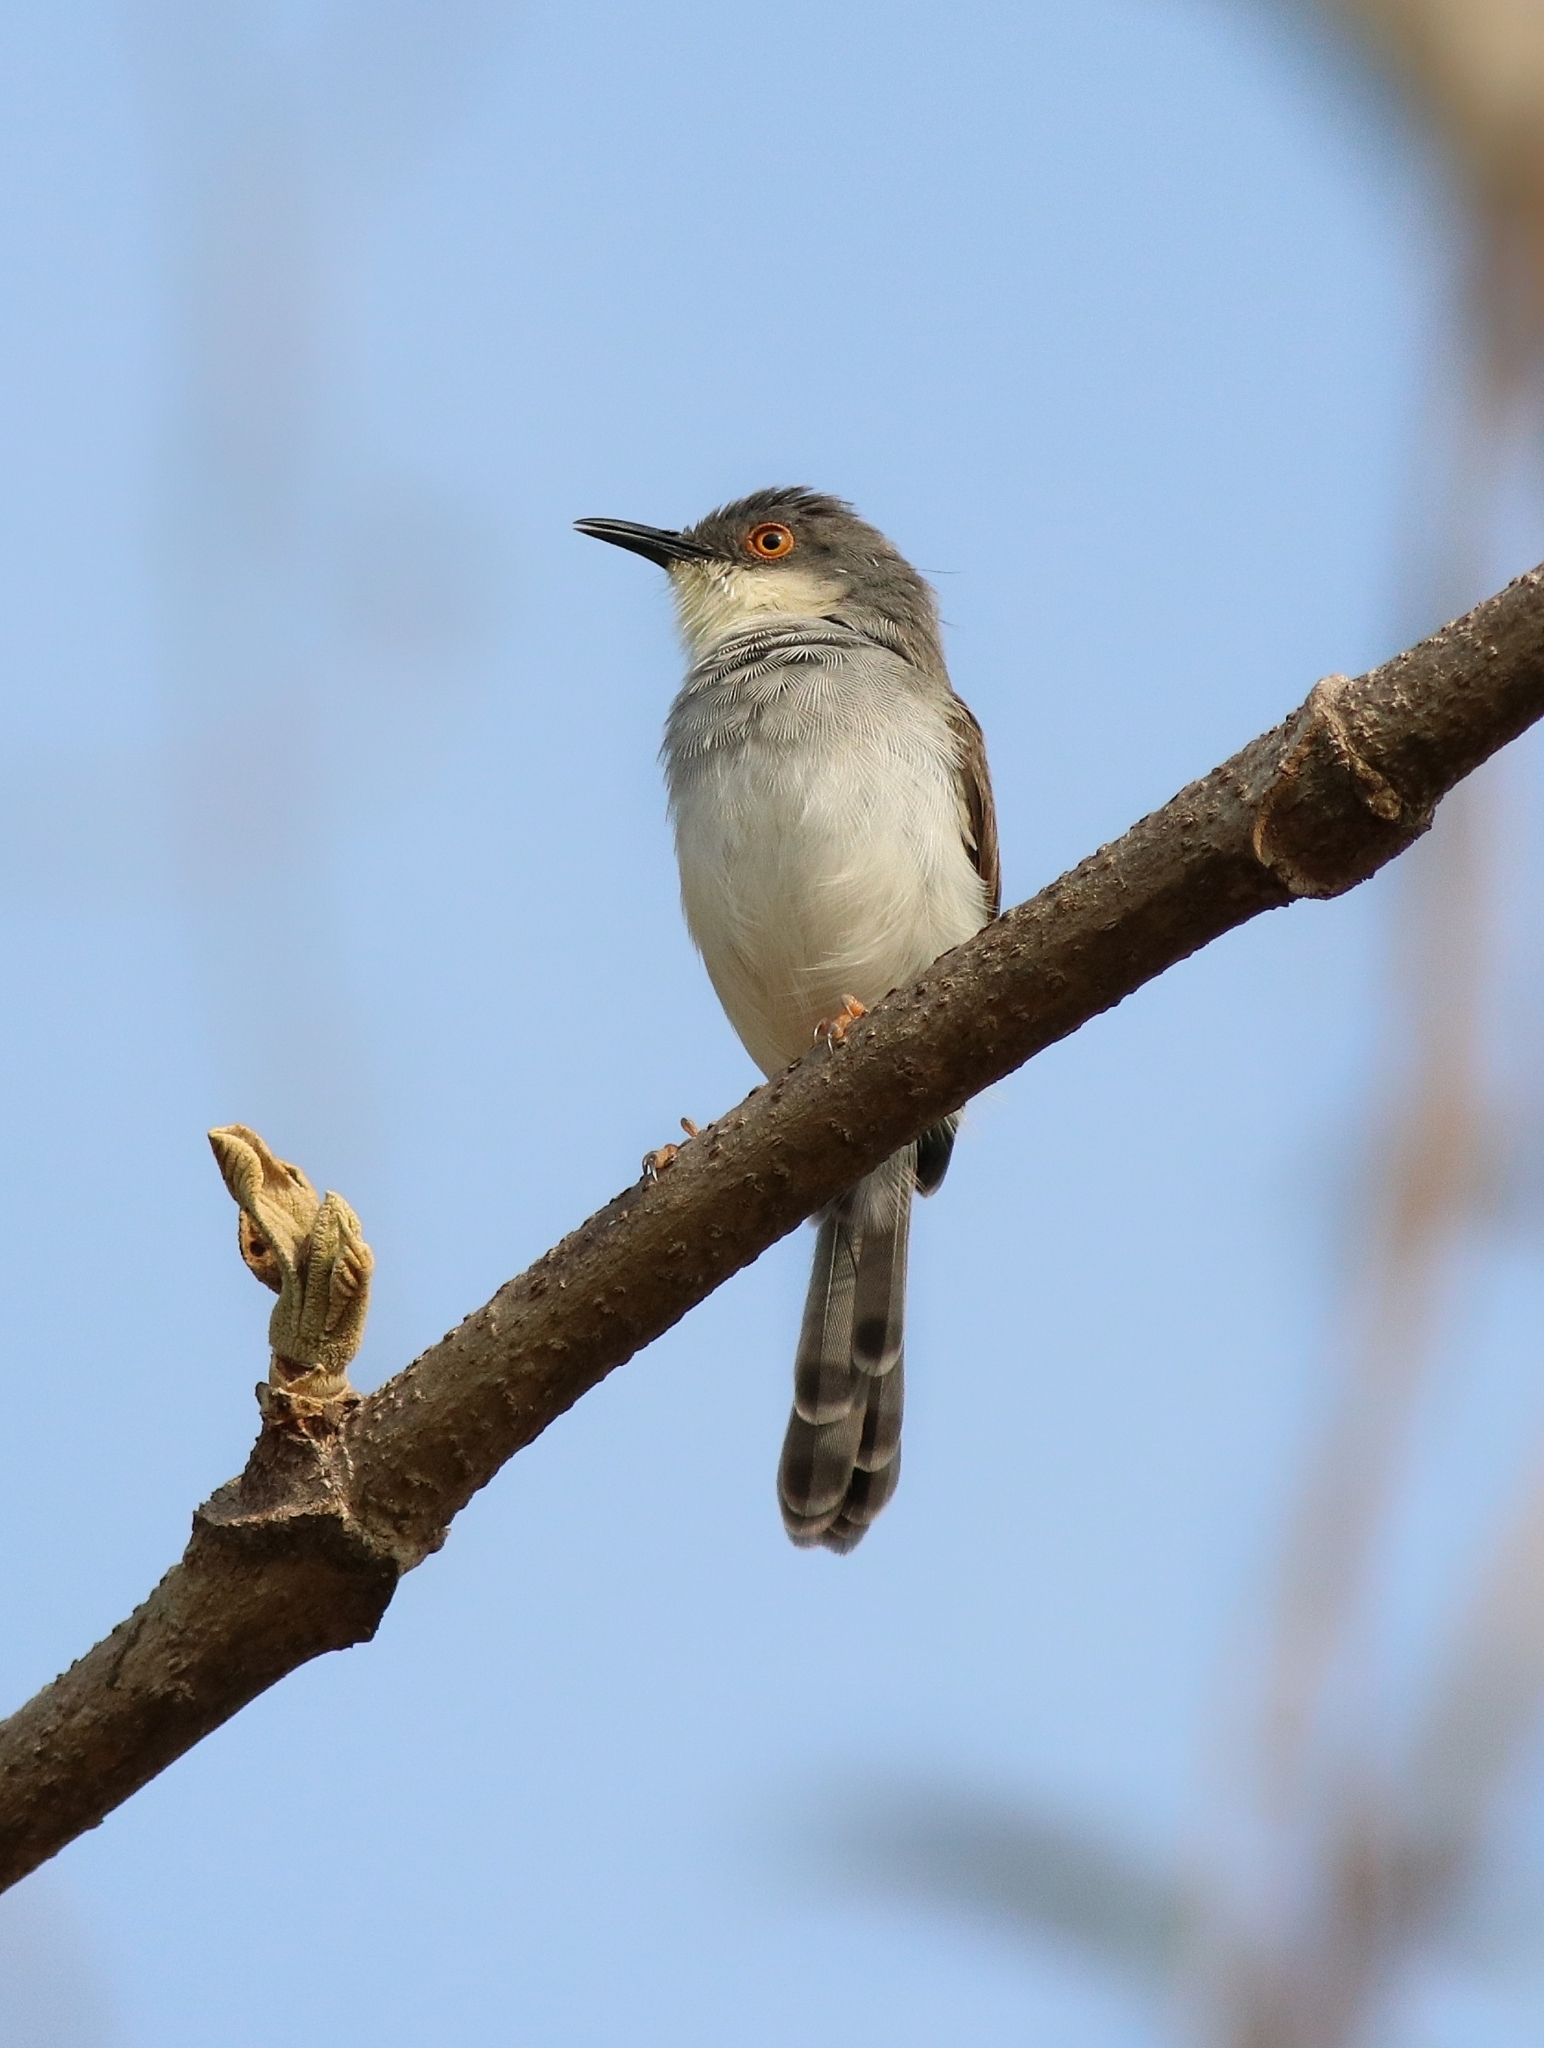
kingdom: Animalia
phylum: Chordata
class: Aves
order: Passeriformes
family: Cisticolidae
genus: Prinia
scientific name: Prinia hodgsonii
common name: Grey-breasted prinia
